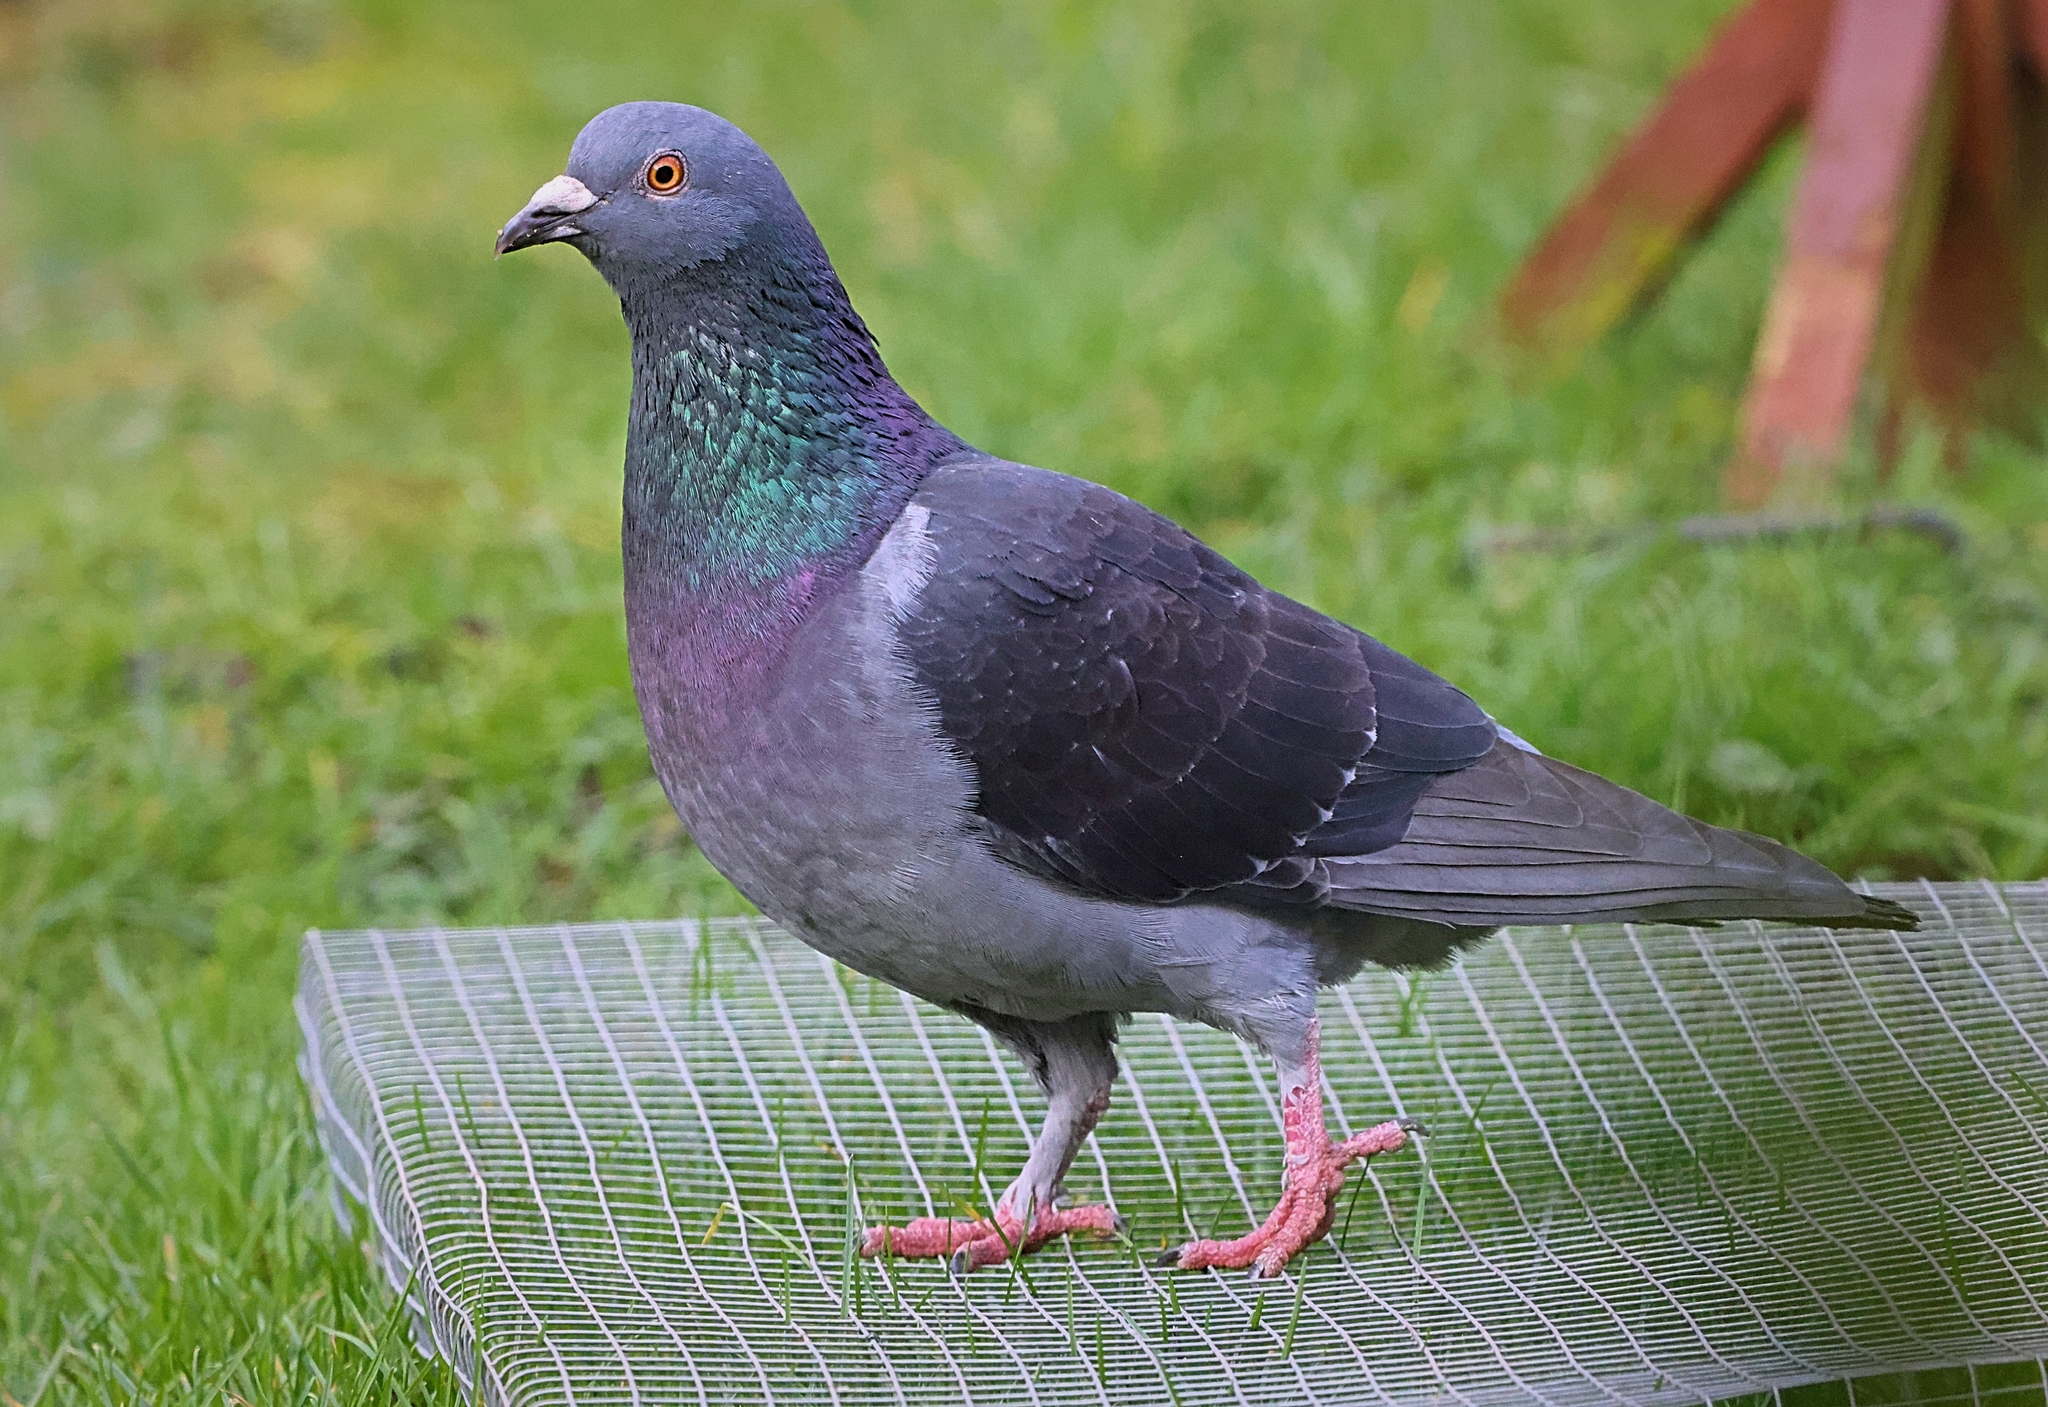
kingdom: Animalia
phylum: Chordata
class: Aves
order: Columbiformes
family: Columbidae
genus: Columba
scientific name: Columba livia
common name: Rock pigeon
